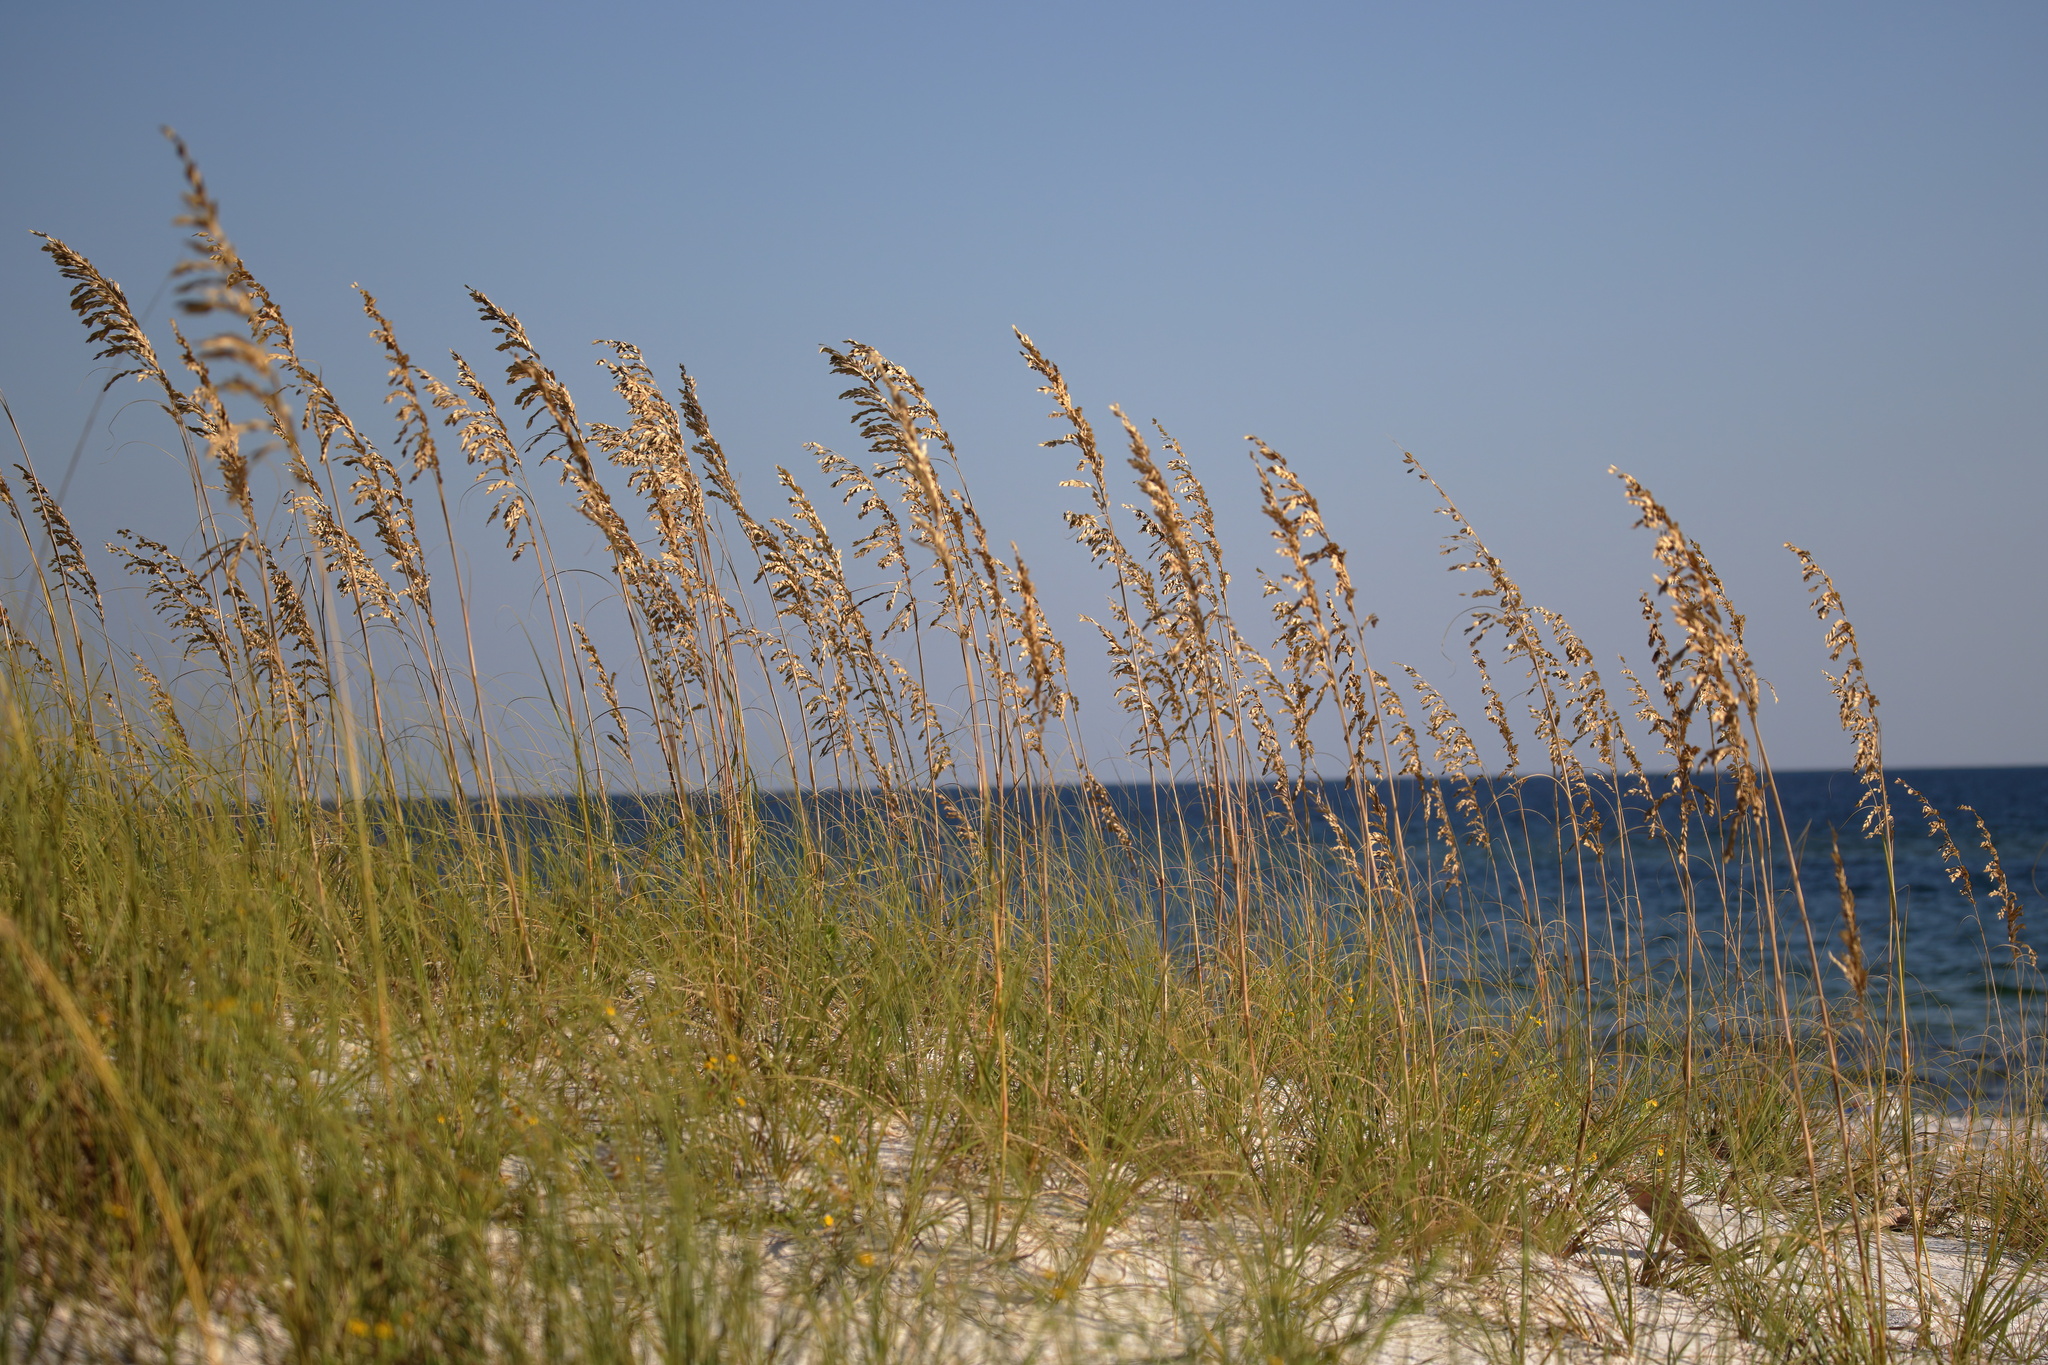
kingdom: Plantae
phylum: Tracheophyta
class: Liliopsida
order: Poales
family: Poaceae
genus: Uniola
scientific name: Uniola paniculata
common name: Seaside-oats
